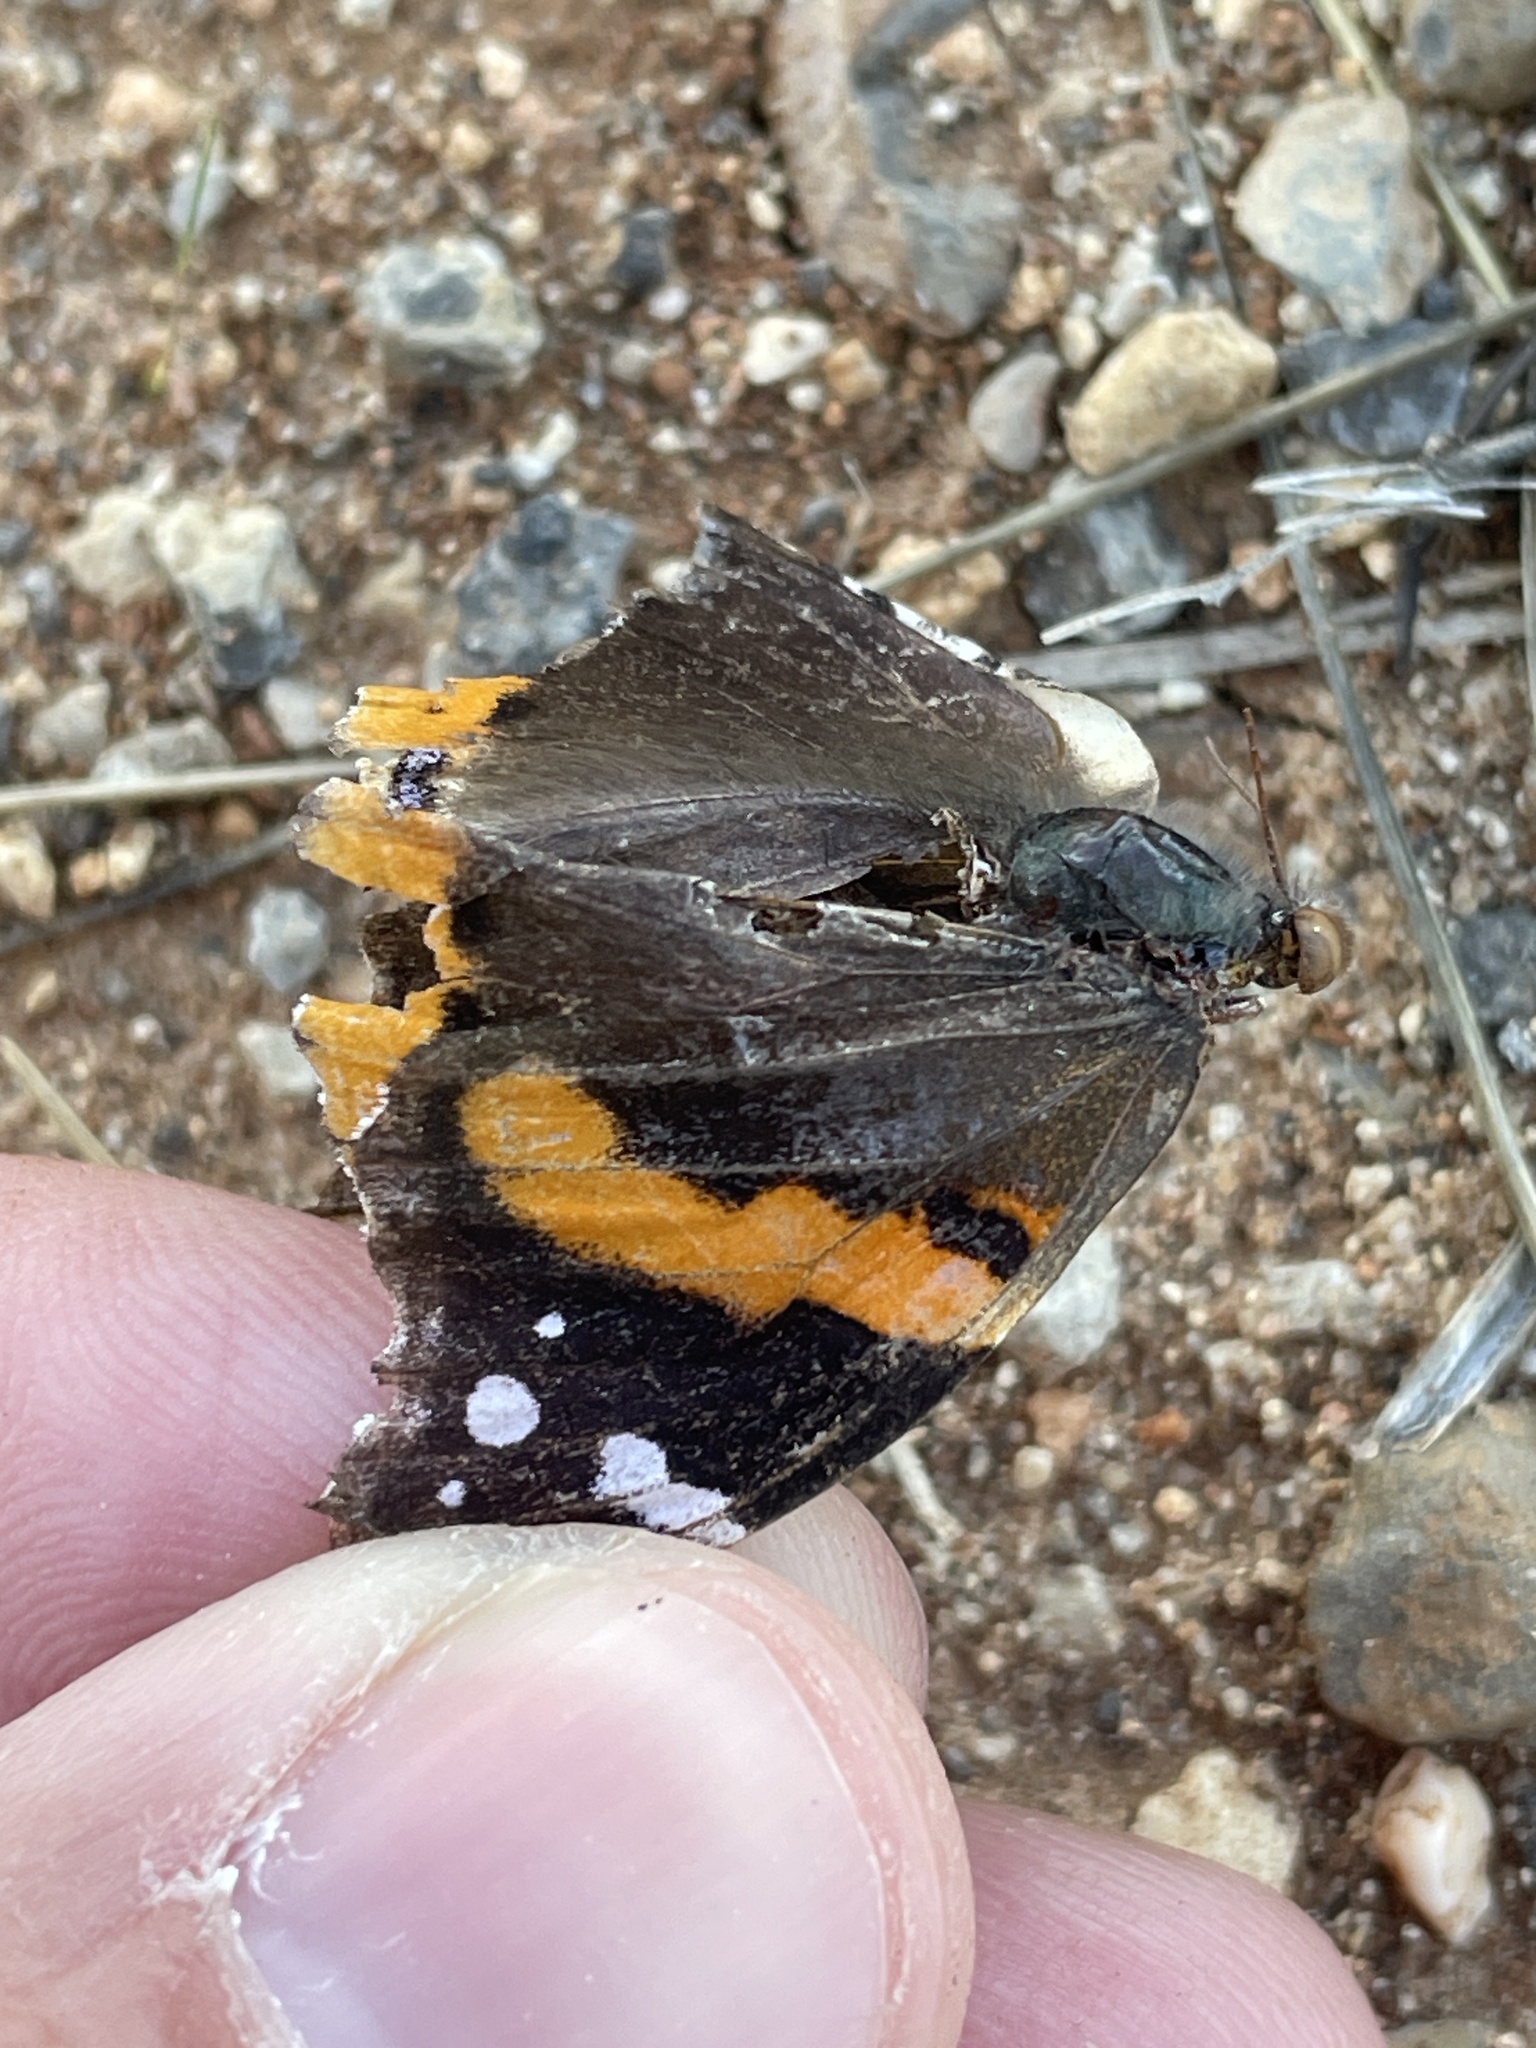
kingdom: Animalia
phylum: Arthropoda
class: Insecta
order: Lepidoptera
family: Nymphalidae
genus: Vanessa
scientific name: Vanessa atalanta
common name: Red admiral
